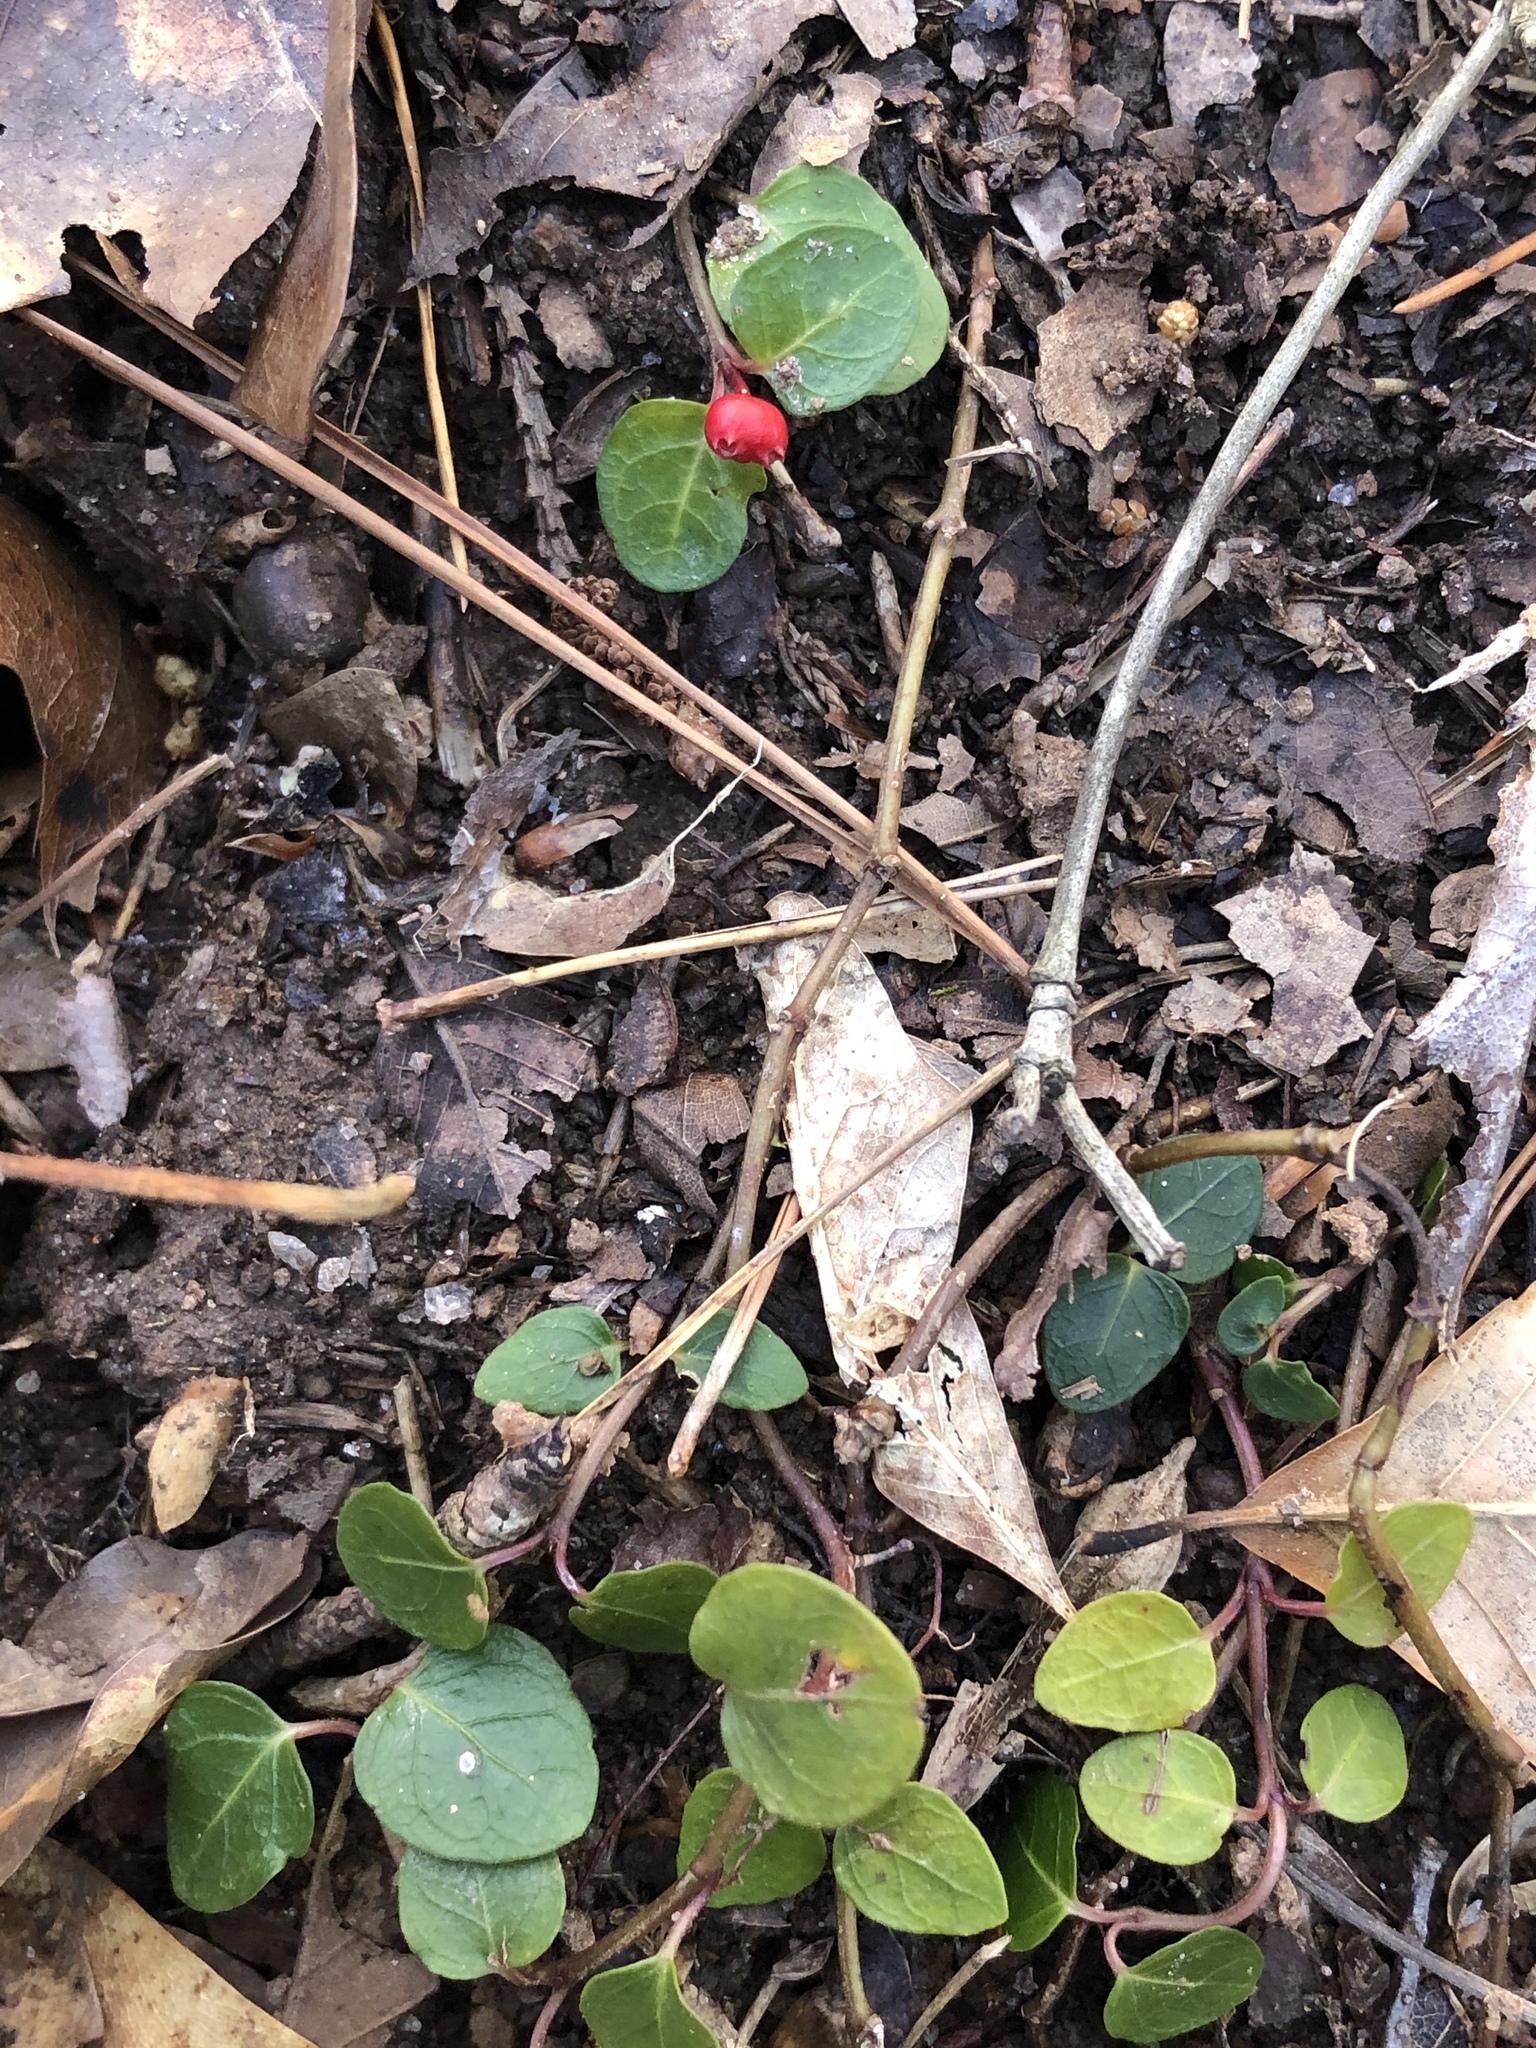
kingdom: Plantae
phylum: Tracheophyta
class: Magnoliopsida
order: Gentianales
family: Rubiaceae
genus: Mitchella
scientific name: Mitchella repens
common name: Partridge-berry
